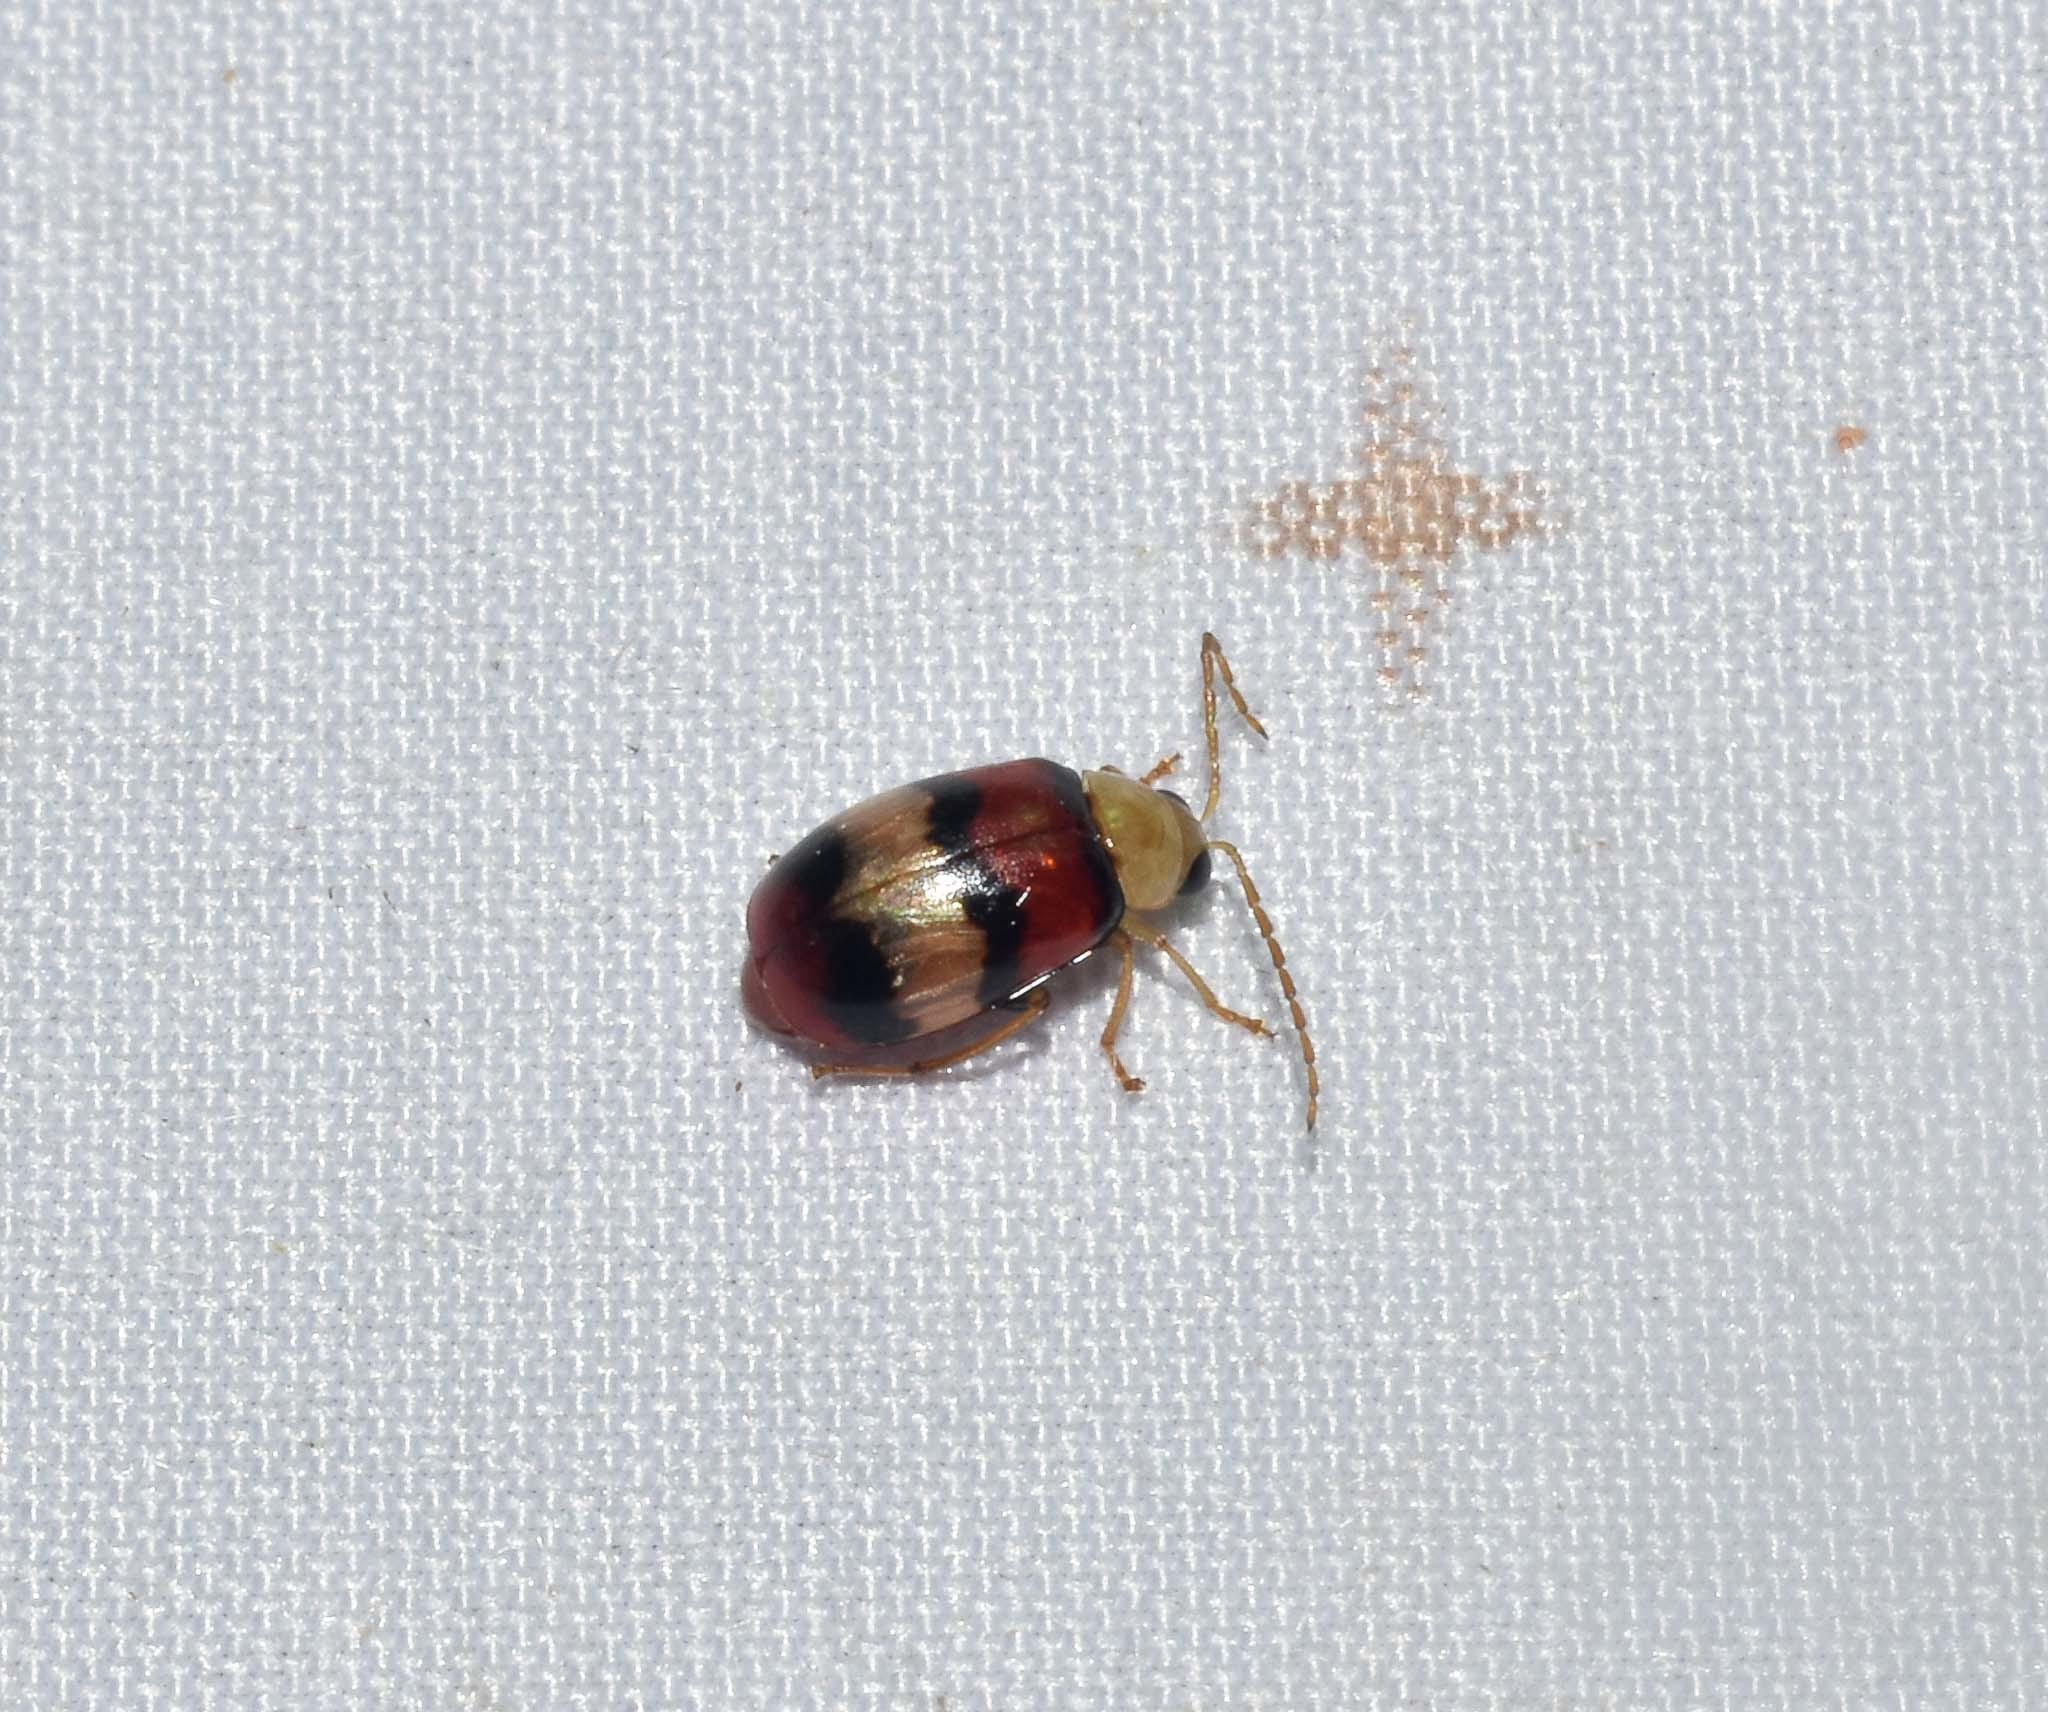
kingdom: Animalia
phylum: Arthropoda
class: Insecta
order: Coleoptera
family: Chrysomelidae
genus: Monolepta
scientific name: Monolepta
